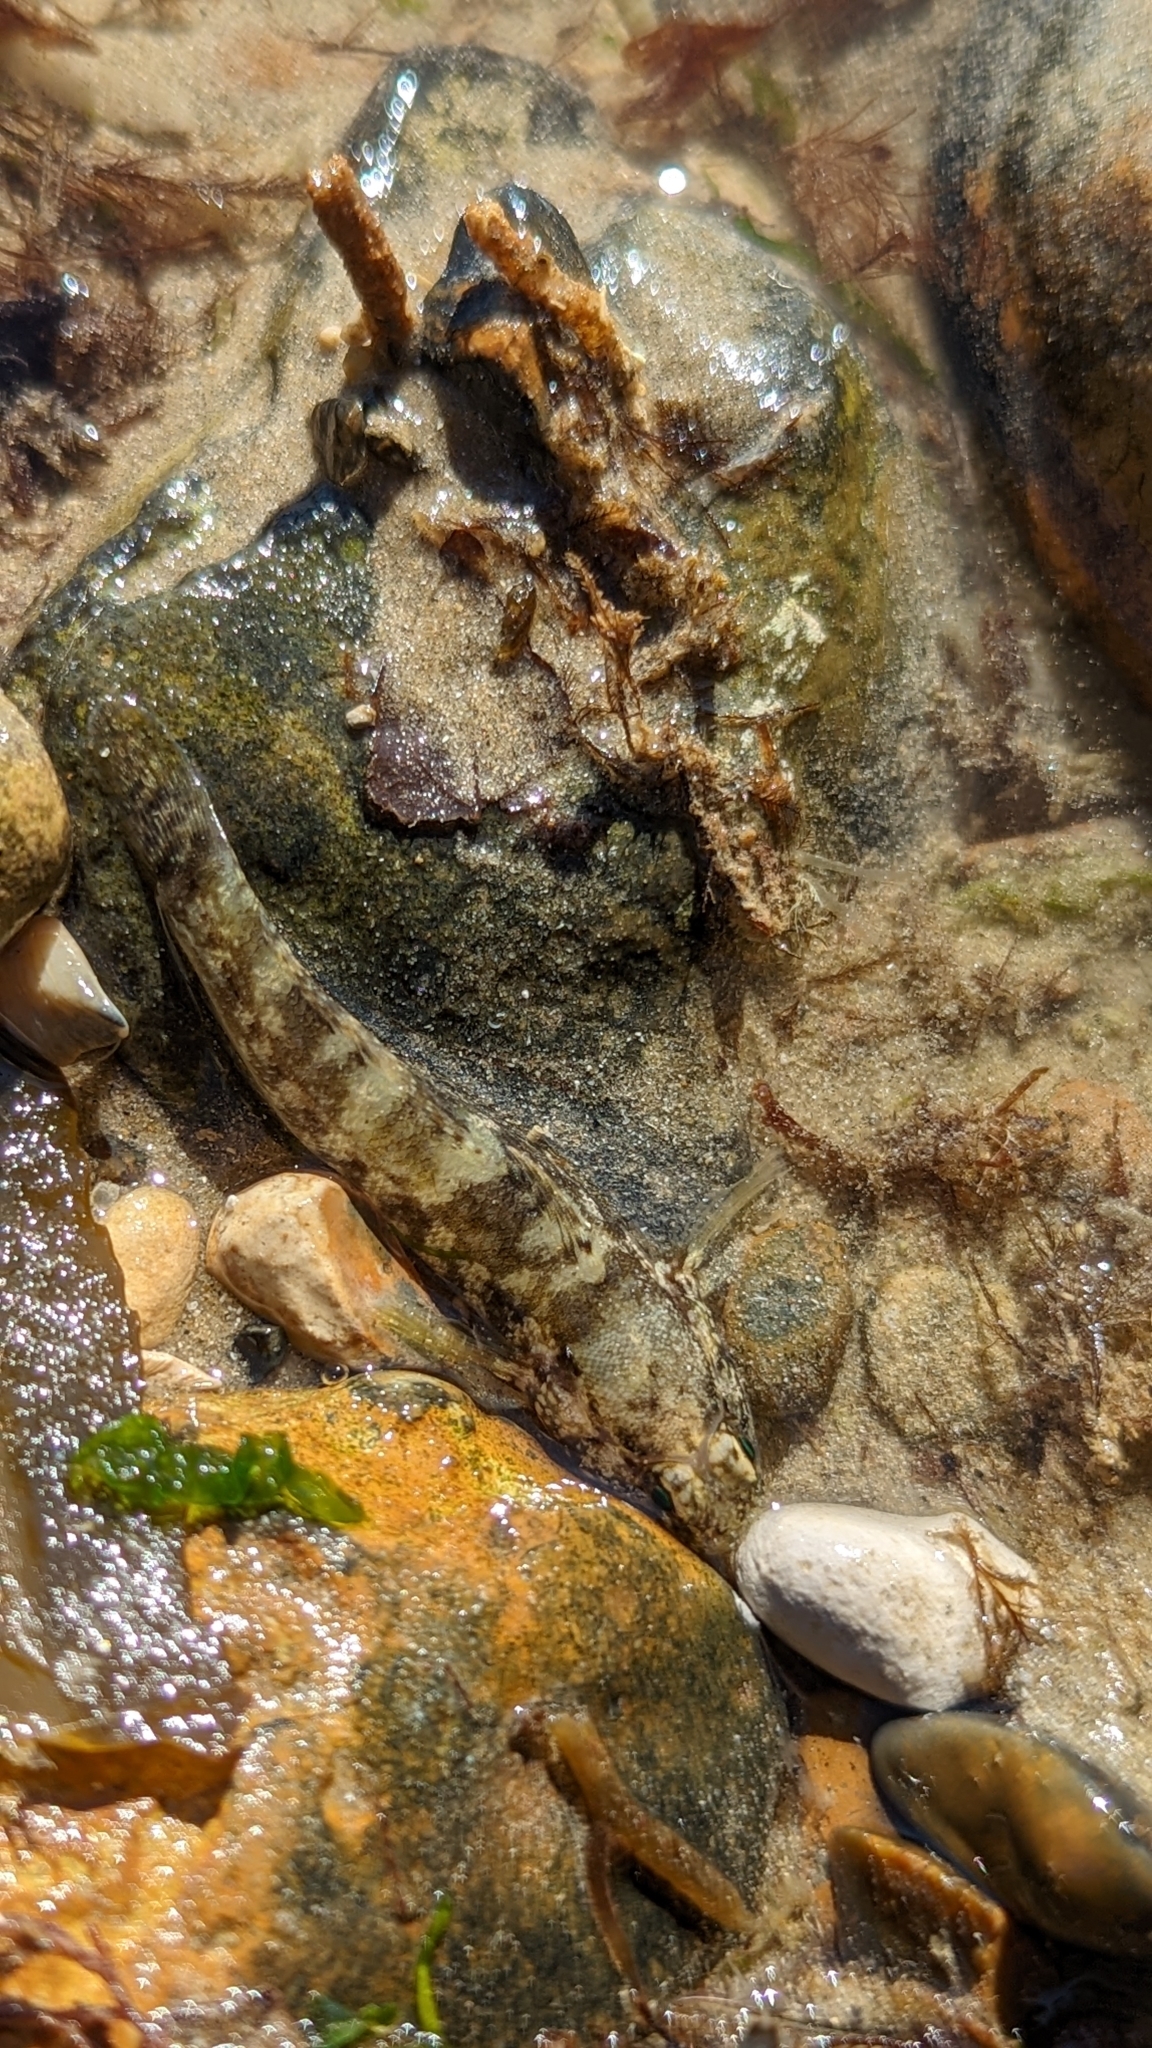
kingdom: Animalia
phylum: Chordata
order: Perciformes
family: Gobiidae
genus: Gobius
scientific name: Gobius paganellus
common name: Rock goby
